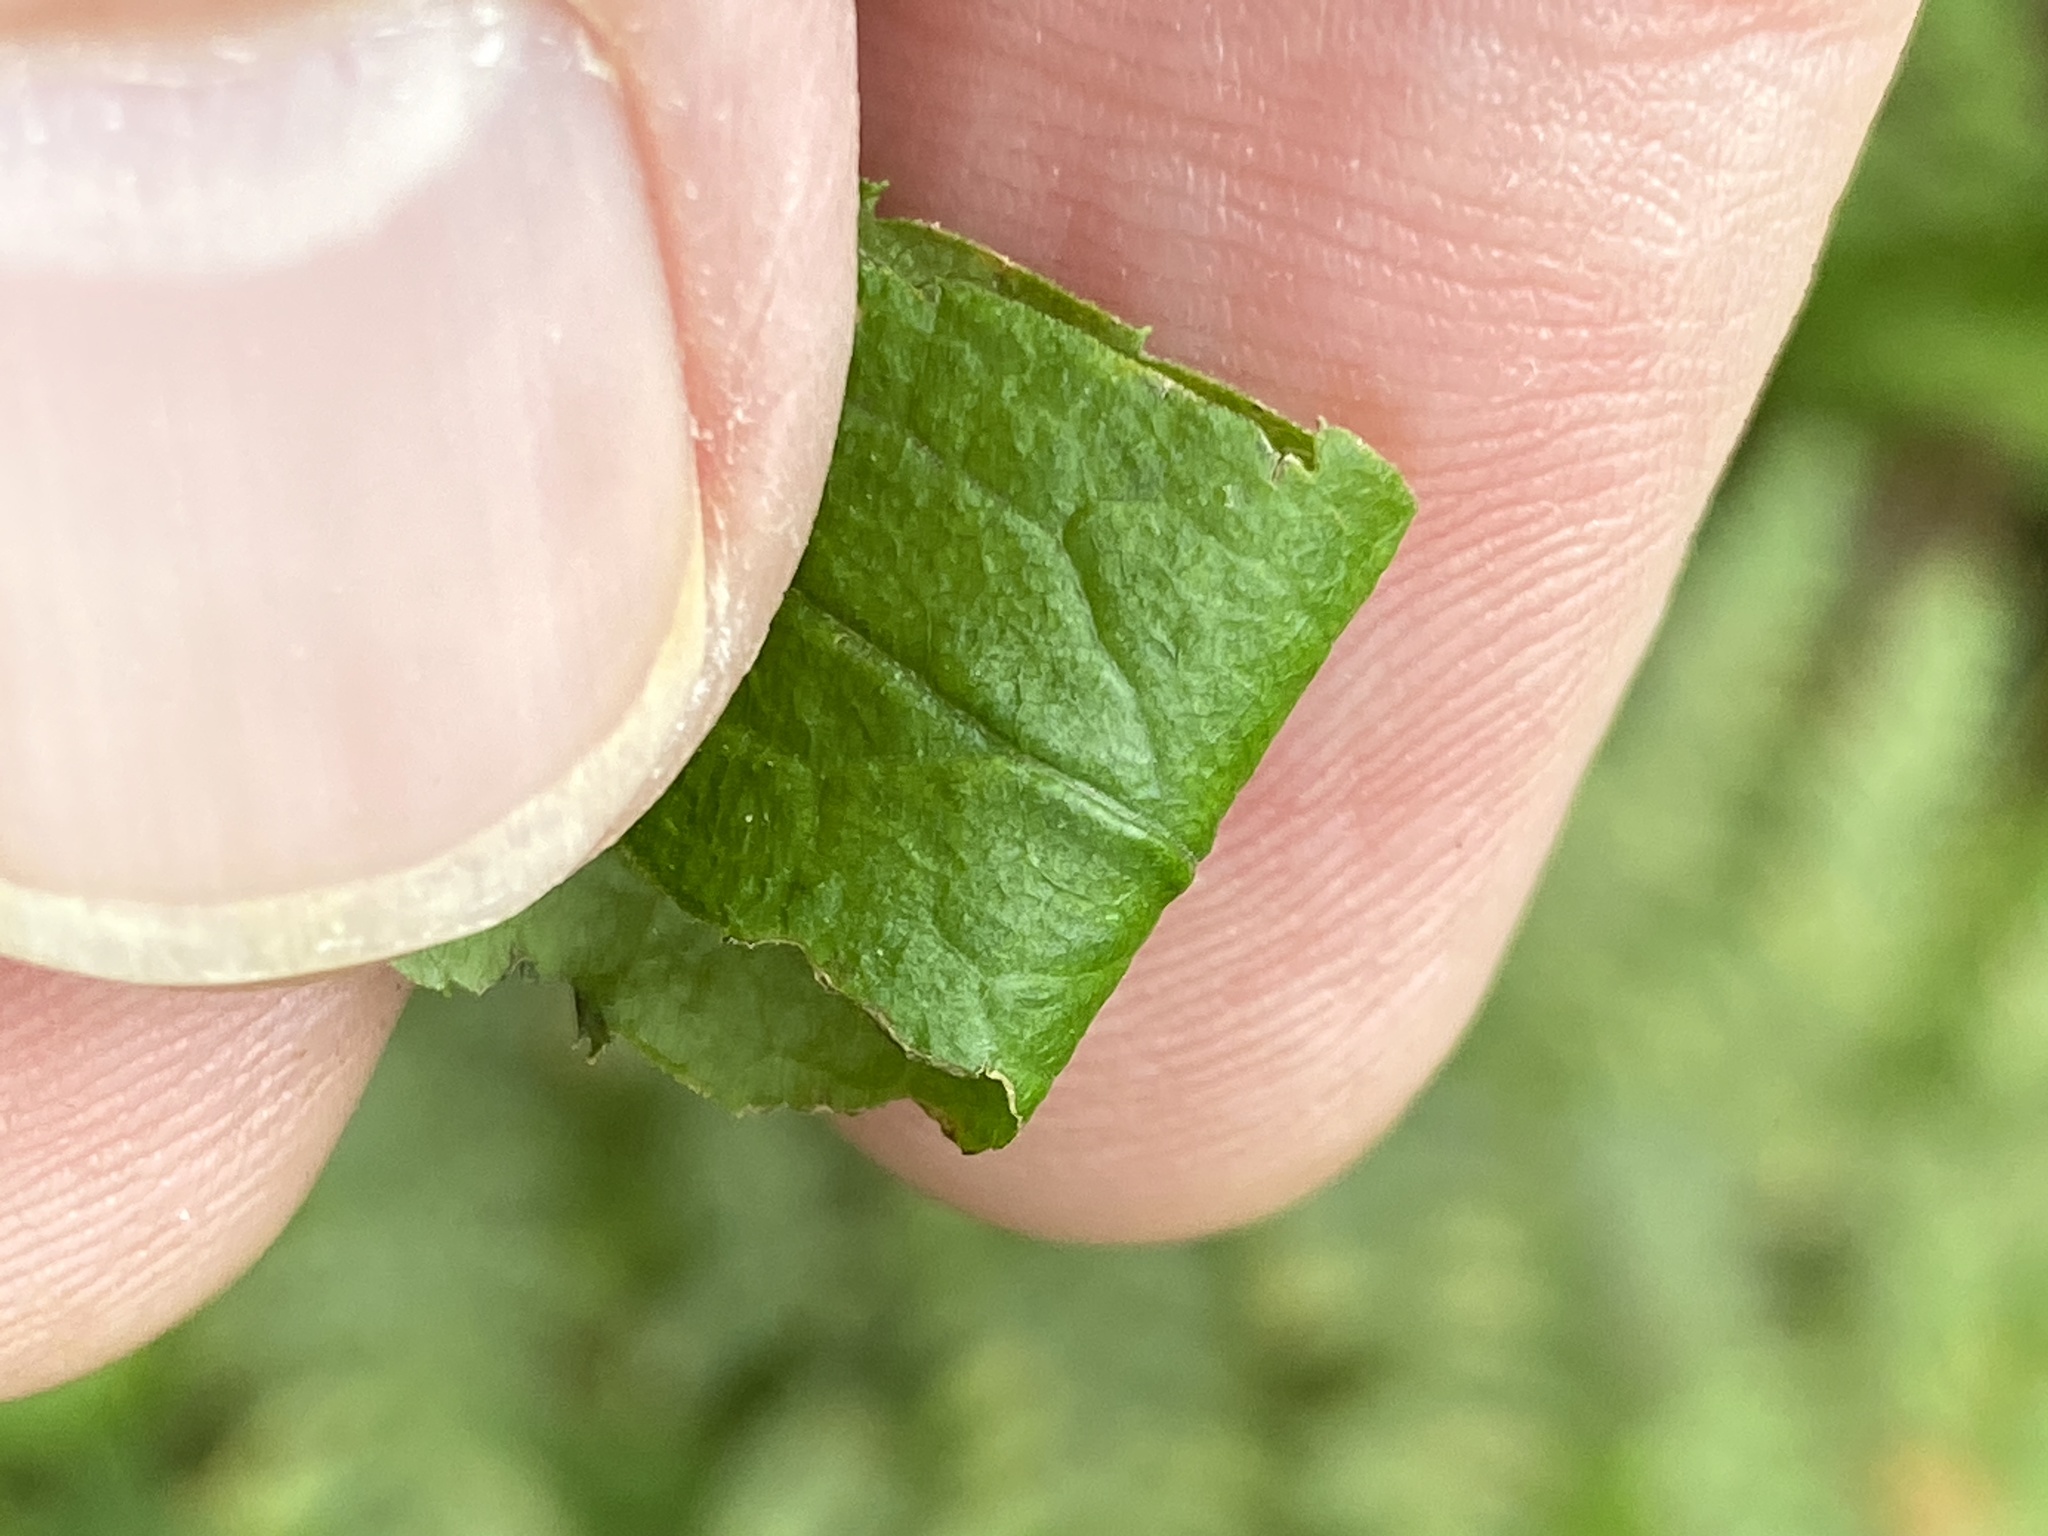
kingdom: Plantae
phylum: Tracheophyta
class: Magnoliopsida
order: Asterales
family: Asteraceae
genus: Solidago
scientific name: Solidago rugosa
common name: Rough-stemmed goldenrod
